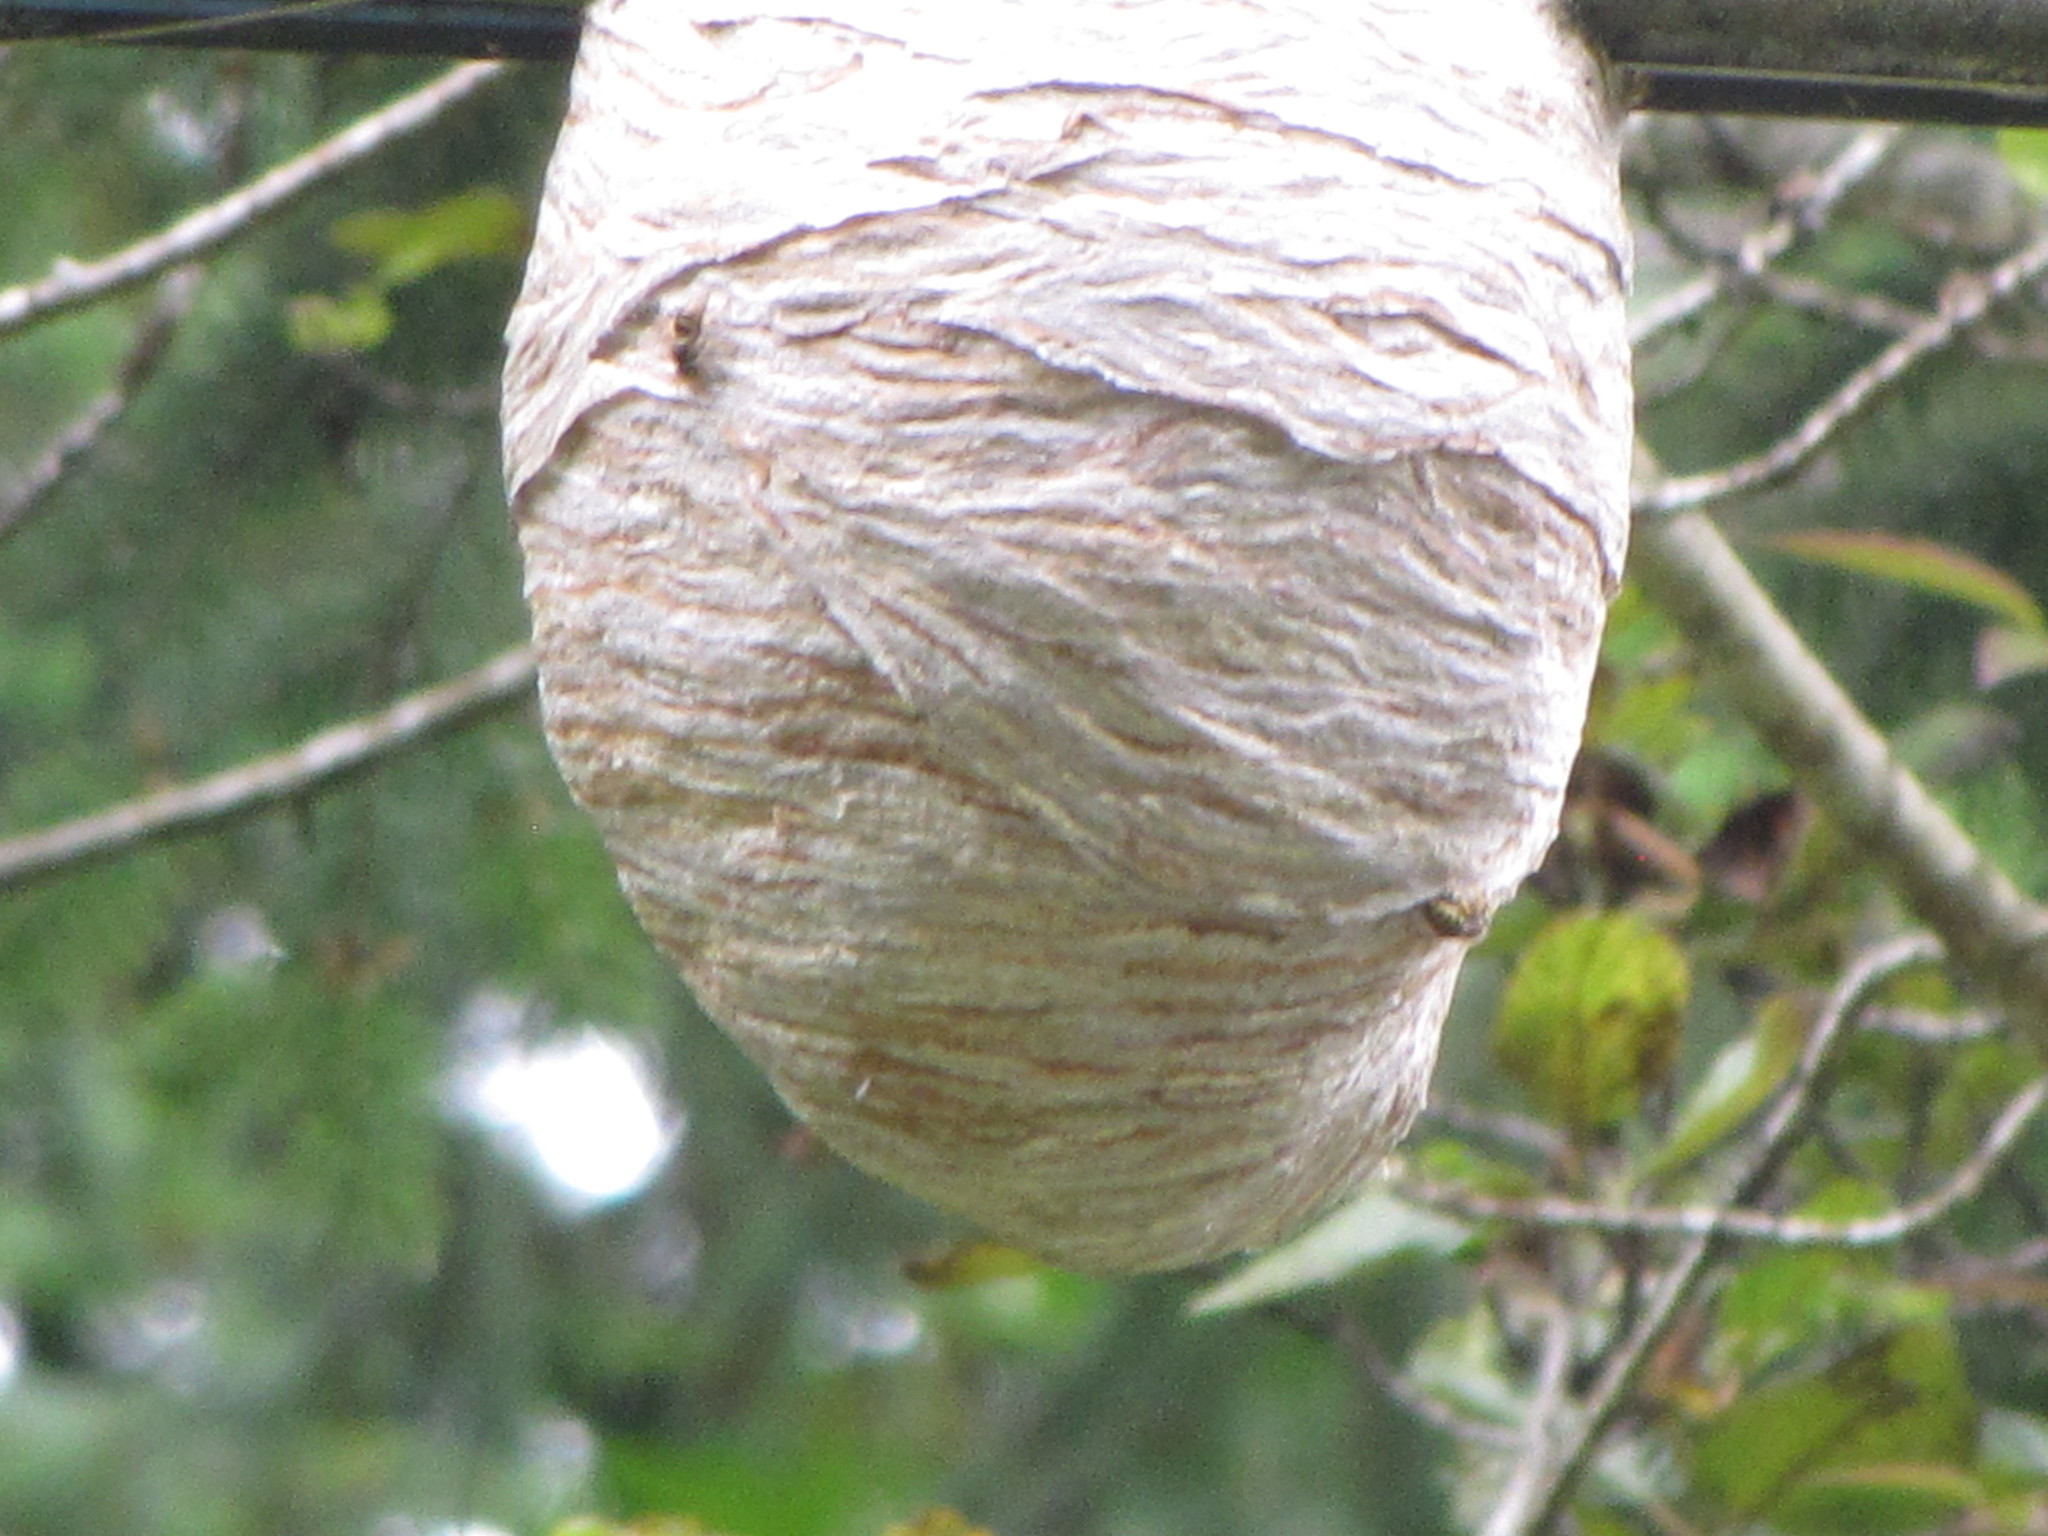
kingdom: Animalia
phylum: Arthropoda
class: Insecta
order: Hymenoptera
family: Vespidae
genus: Dolichovespula
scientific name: Dolichovespula arenaria
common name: Aerial yellowjacket
